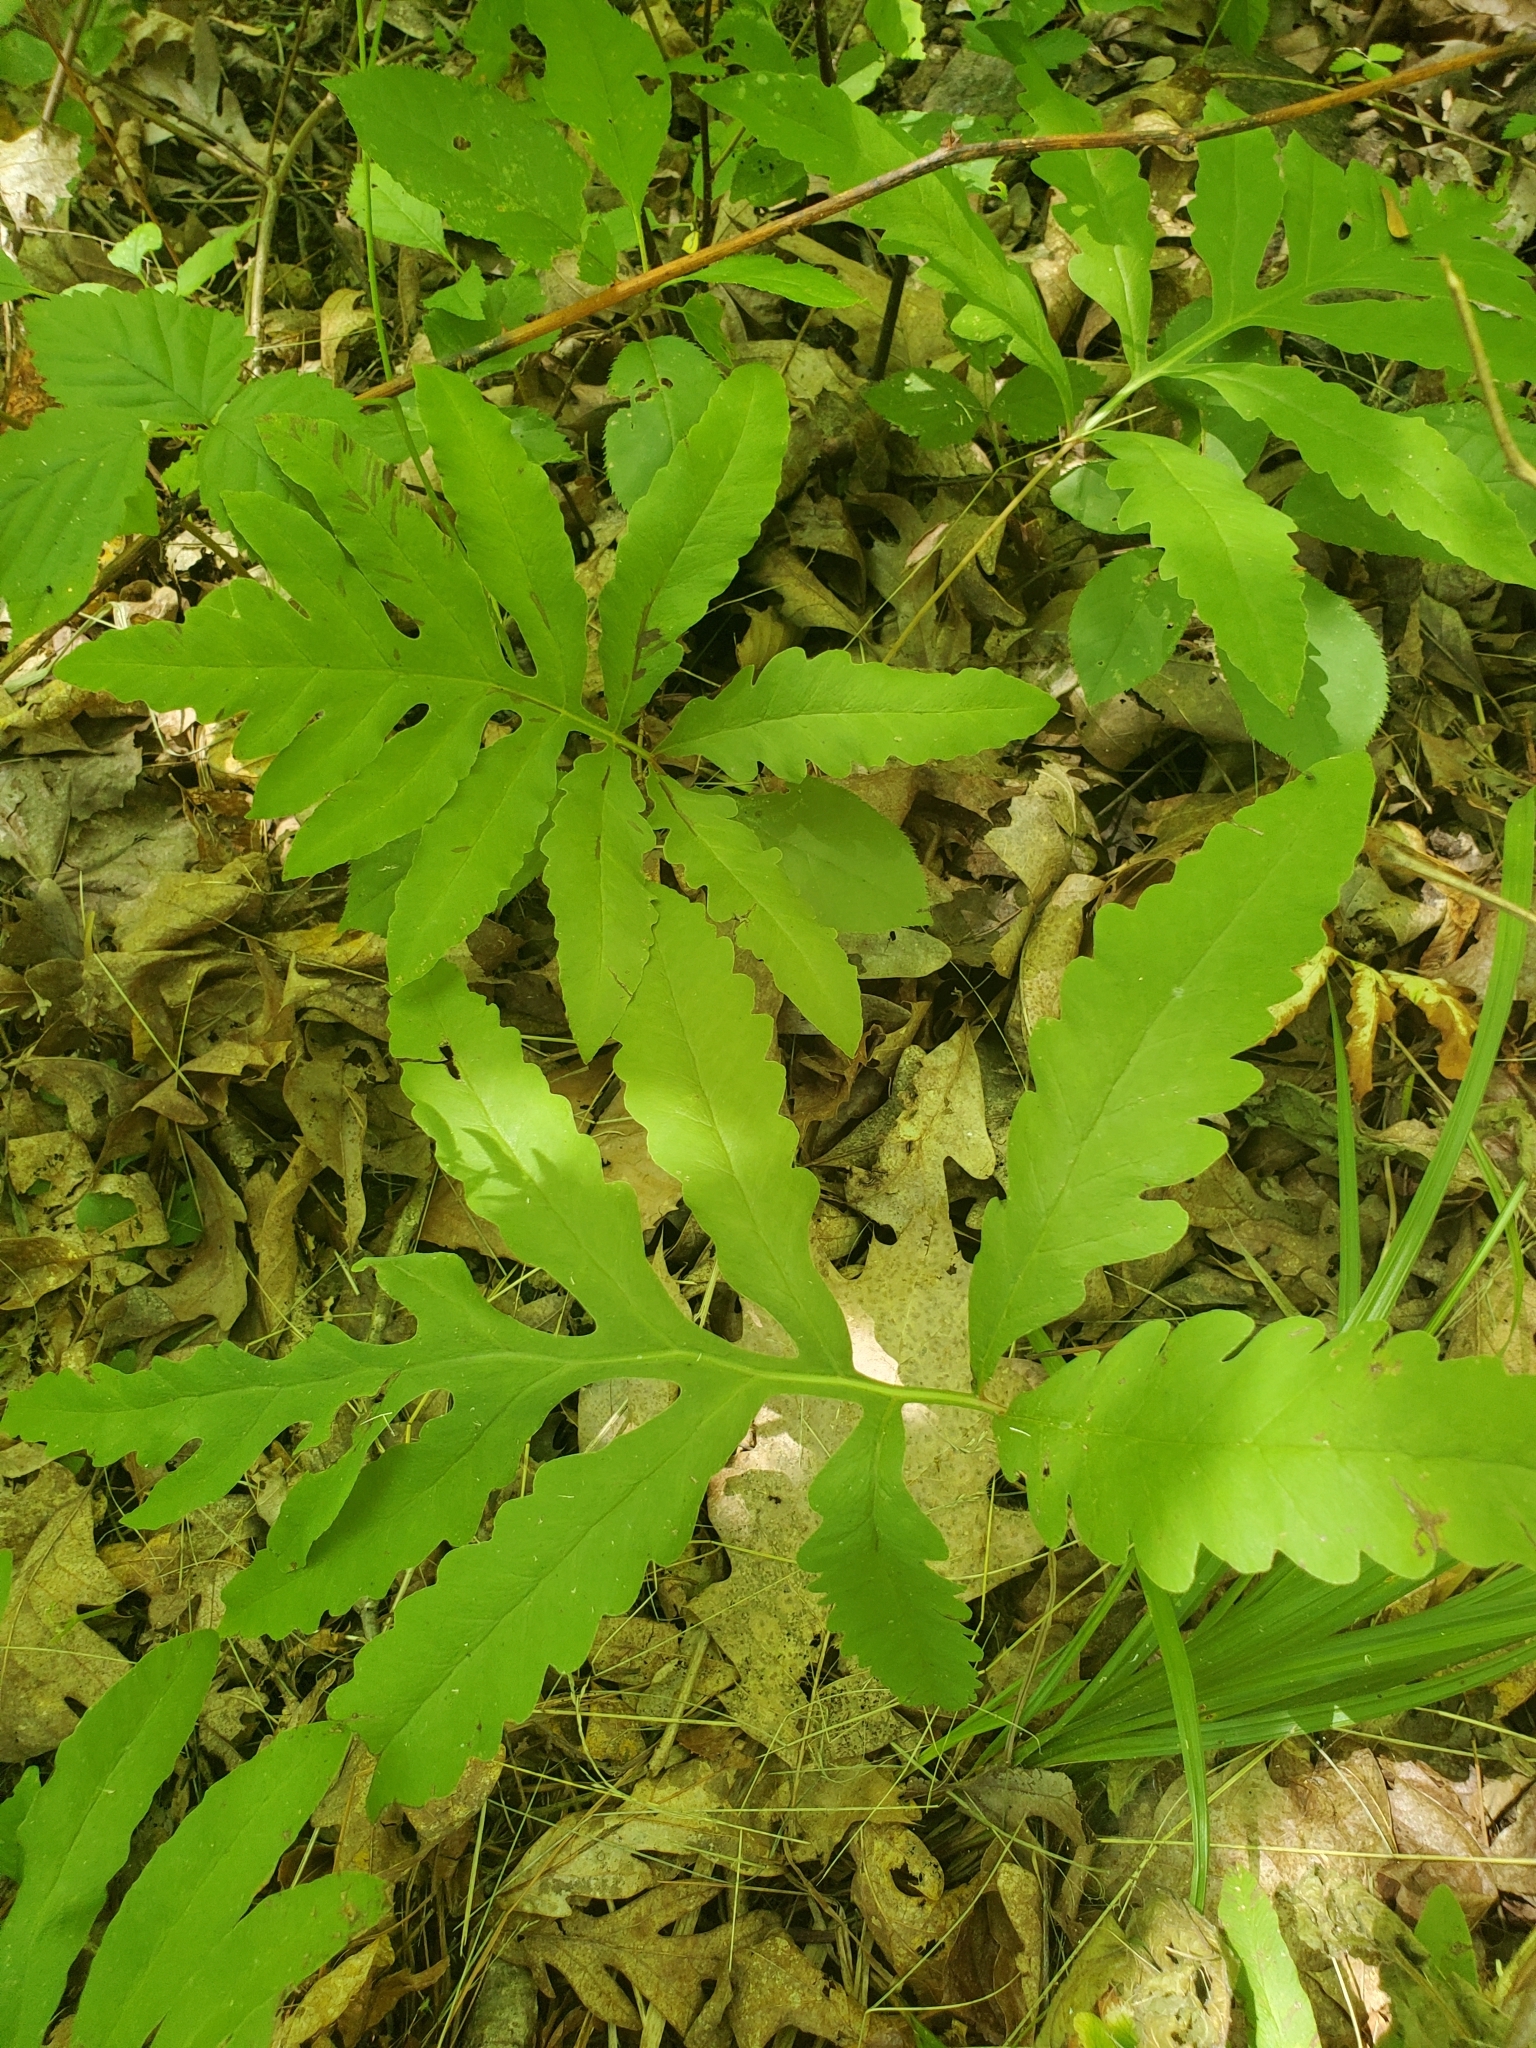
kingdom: Plantae
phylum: Tracheophyta
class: Polypodiopsida
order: Polypodiales
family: Onocleaceae
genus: Onoclea
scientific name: Onoclea sensibilis
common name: Sensitive fern
